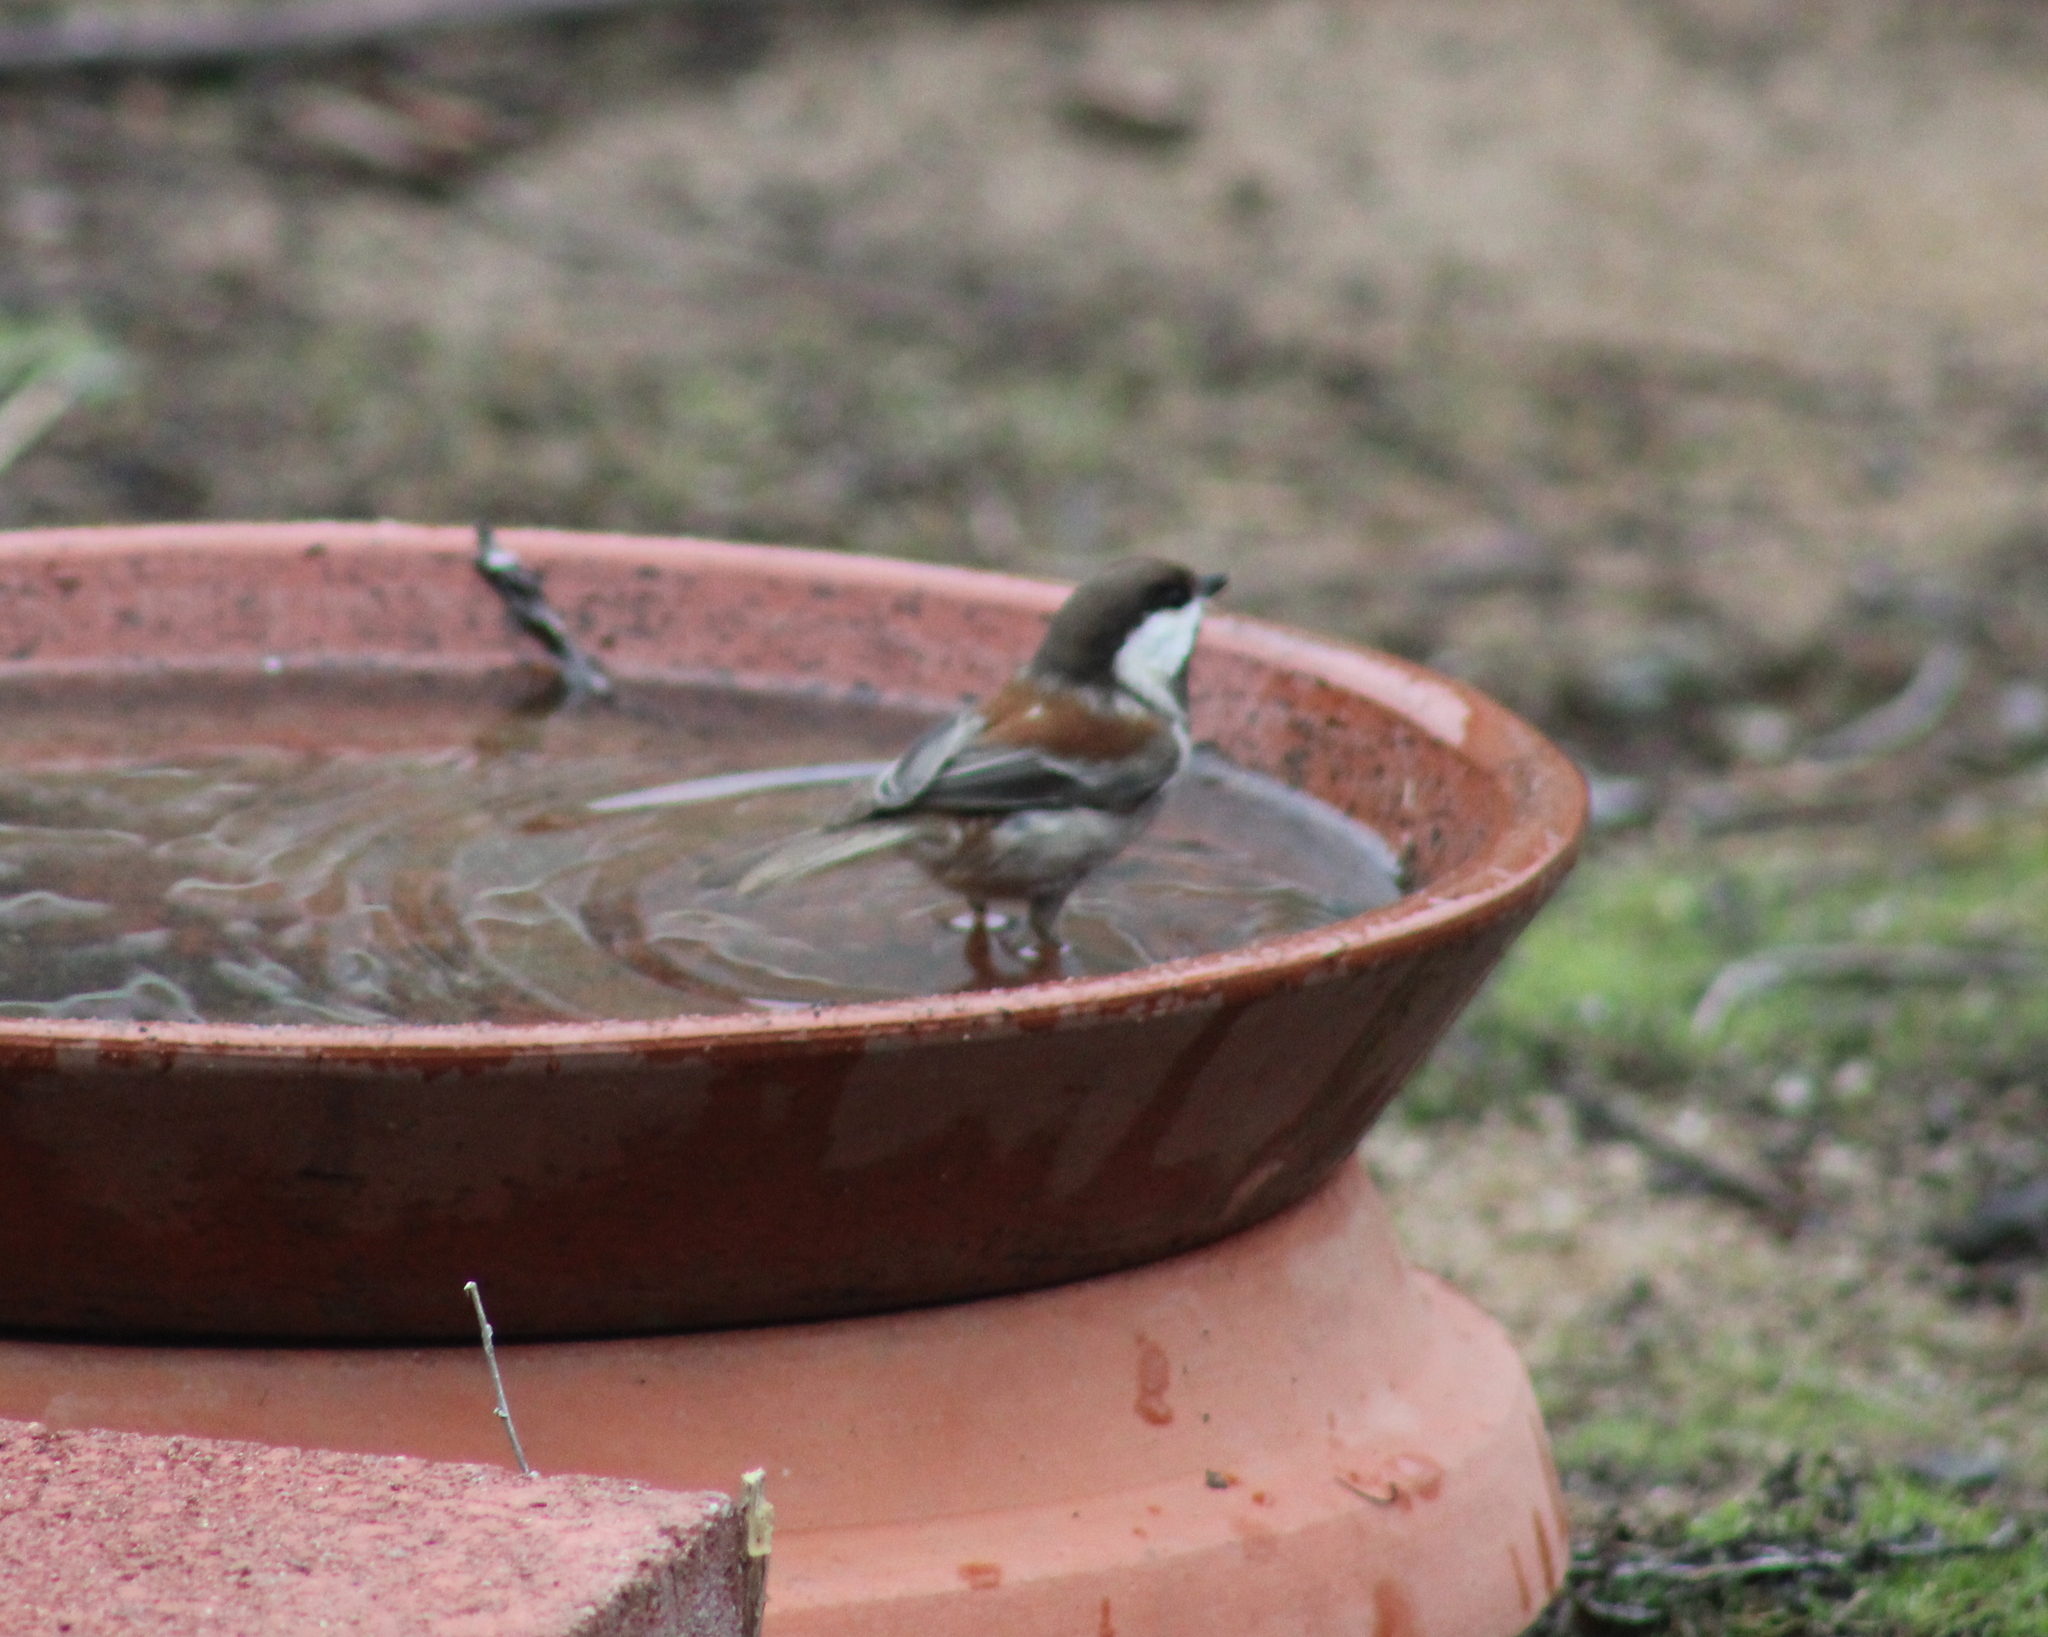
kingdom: Animalia
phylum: Chordata
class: Aves
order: Passeriformes
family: Paridae
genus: Poecile
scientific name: Poecile rufescens
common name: Chestnut-backed chickadee
